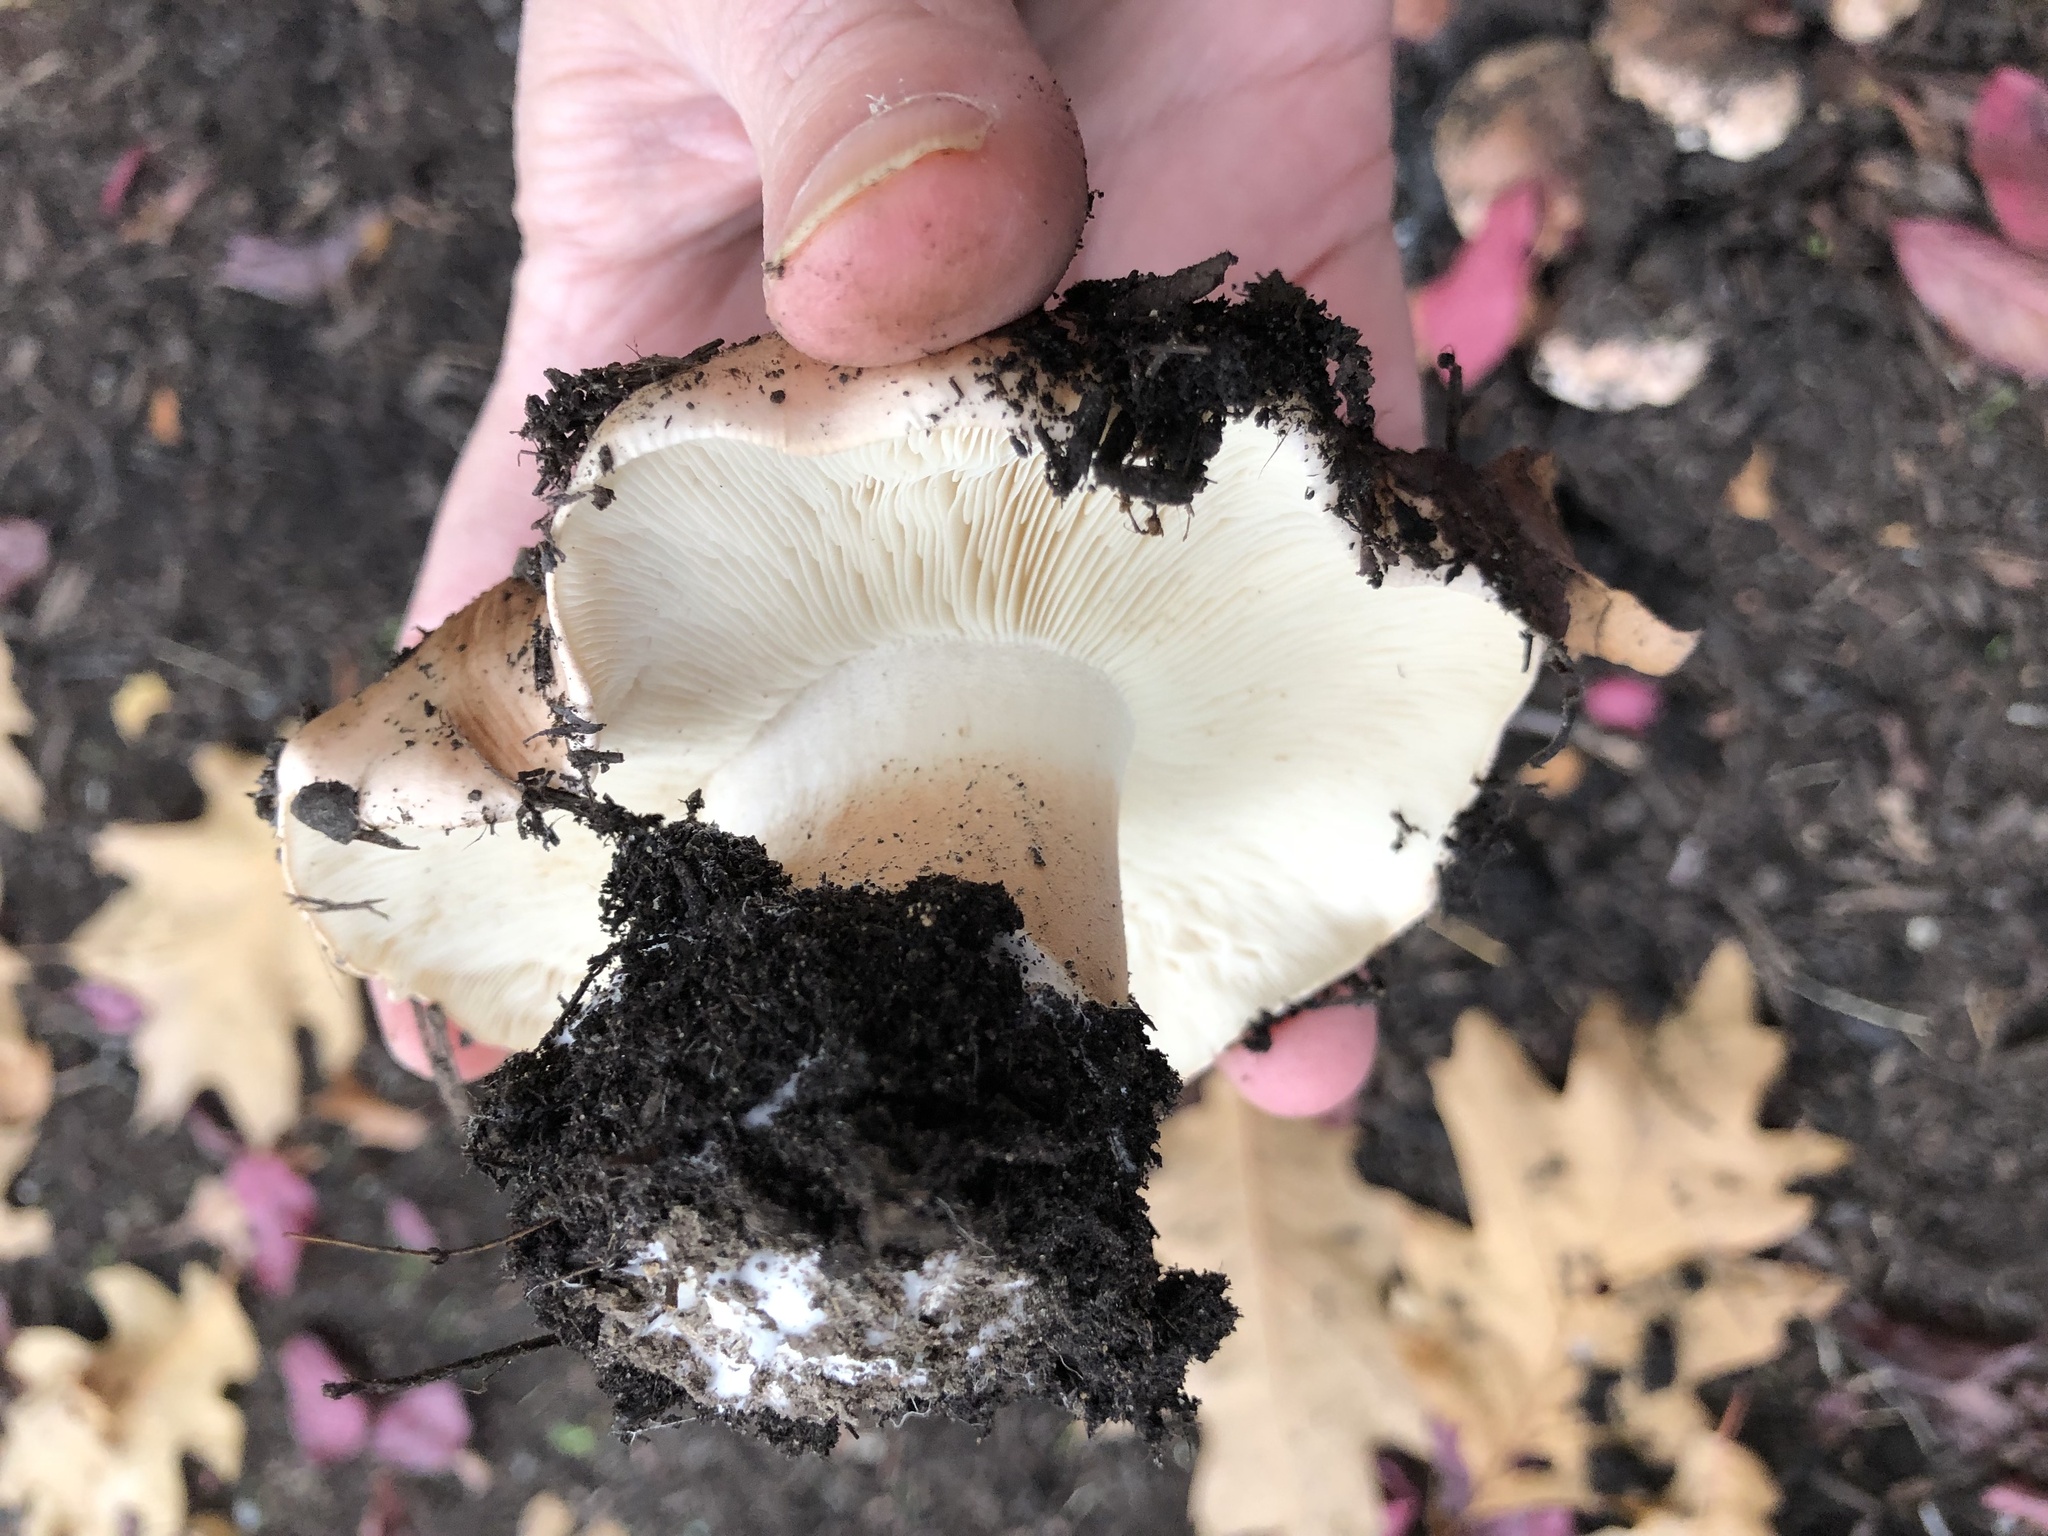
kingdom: Fungi
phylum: Basidiomycota
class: Agaricomycetes
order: Agaricales
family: Tricholomataceae
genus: Tricholoma
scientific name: Tricholoma subannulatum
